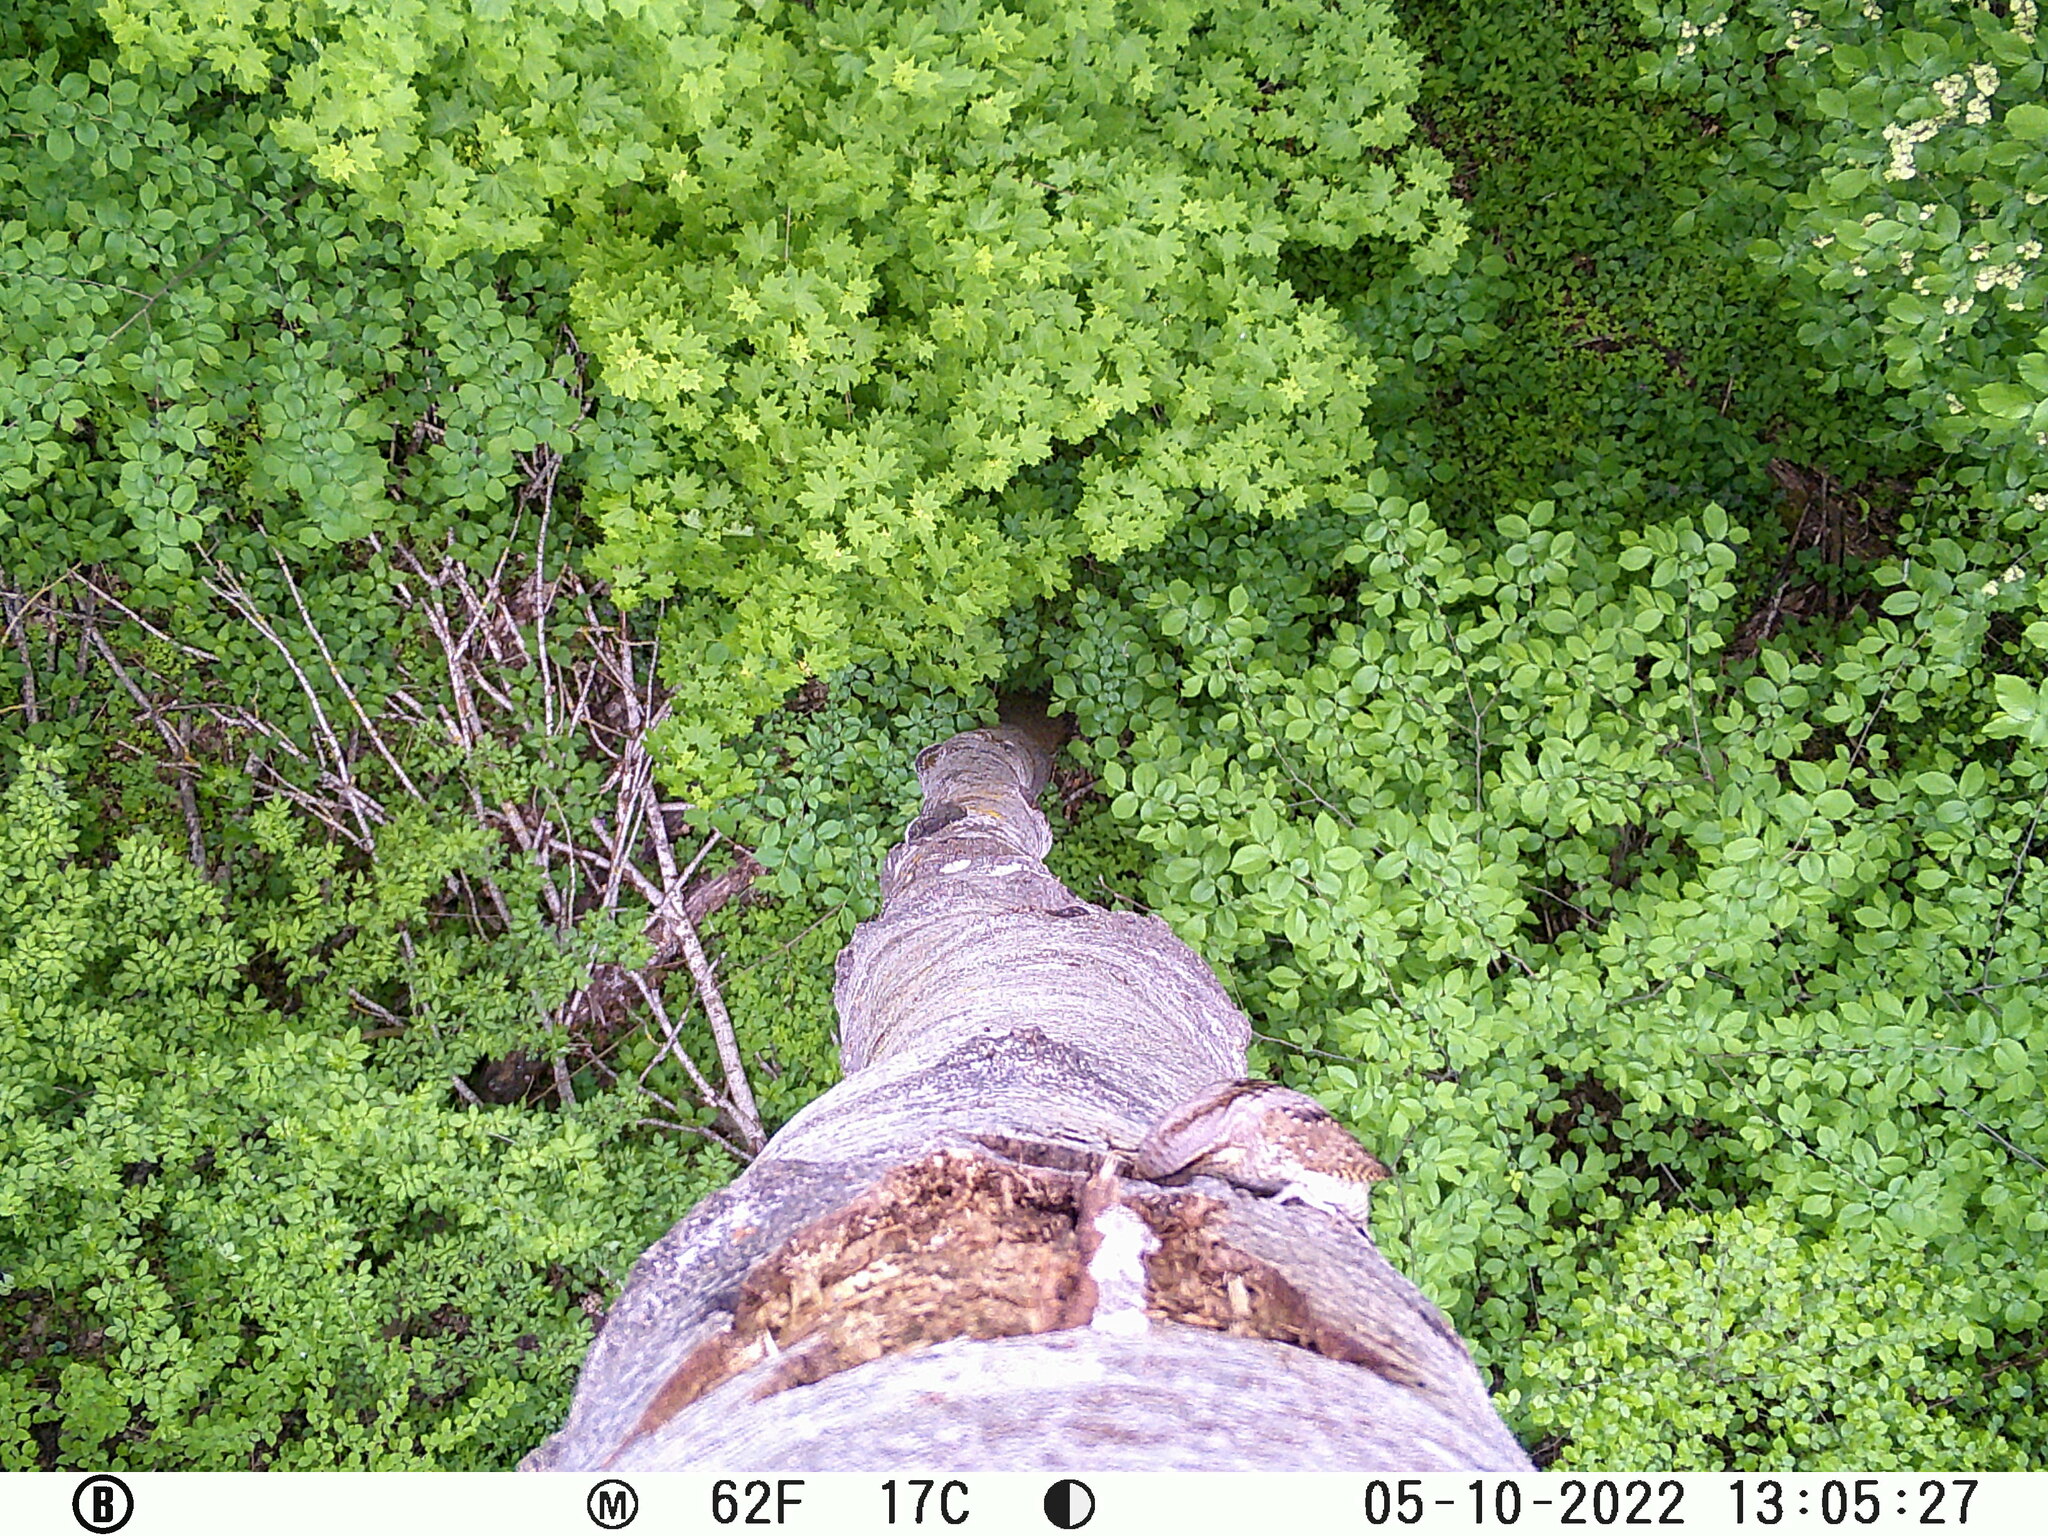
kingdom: Animalia
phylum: Chordata
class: Aves
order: Piciformes
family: Picidae
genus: Jynx
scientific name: Jynx torquilla
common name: Eurasian wryneck
